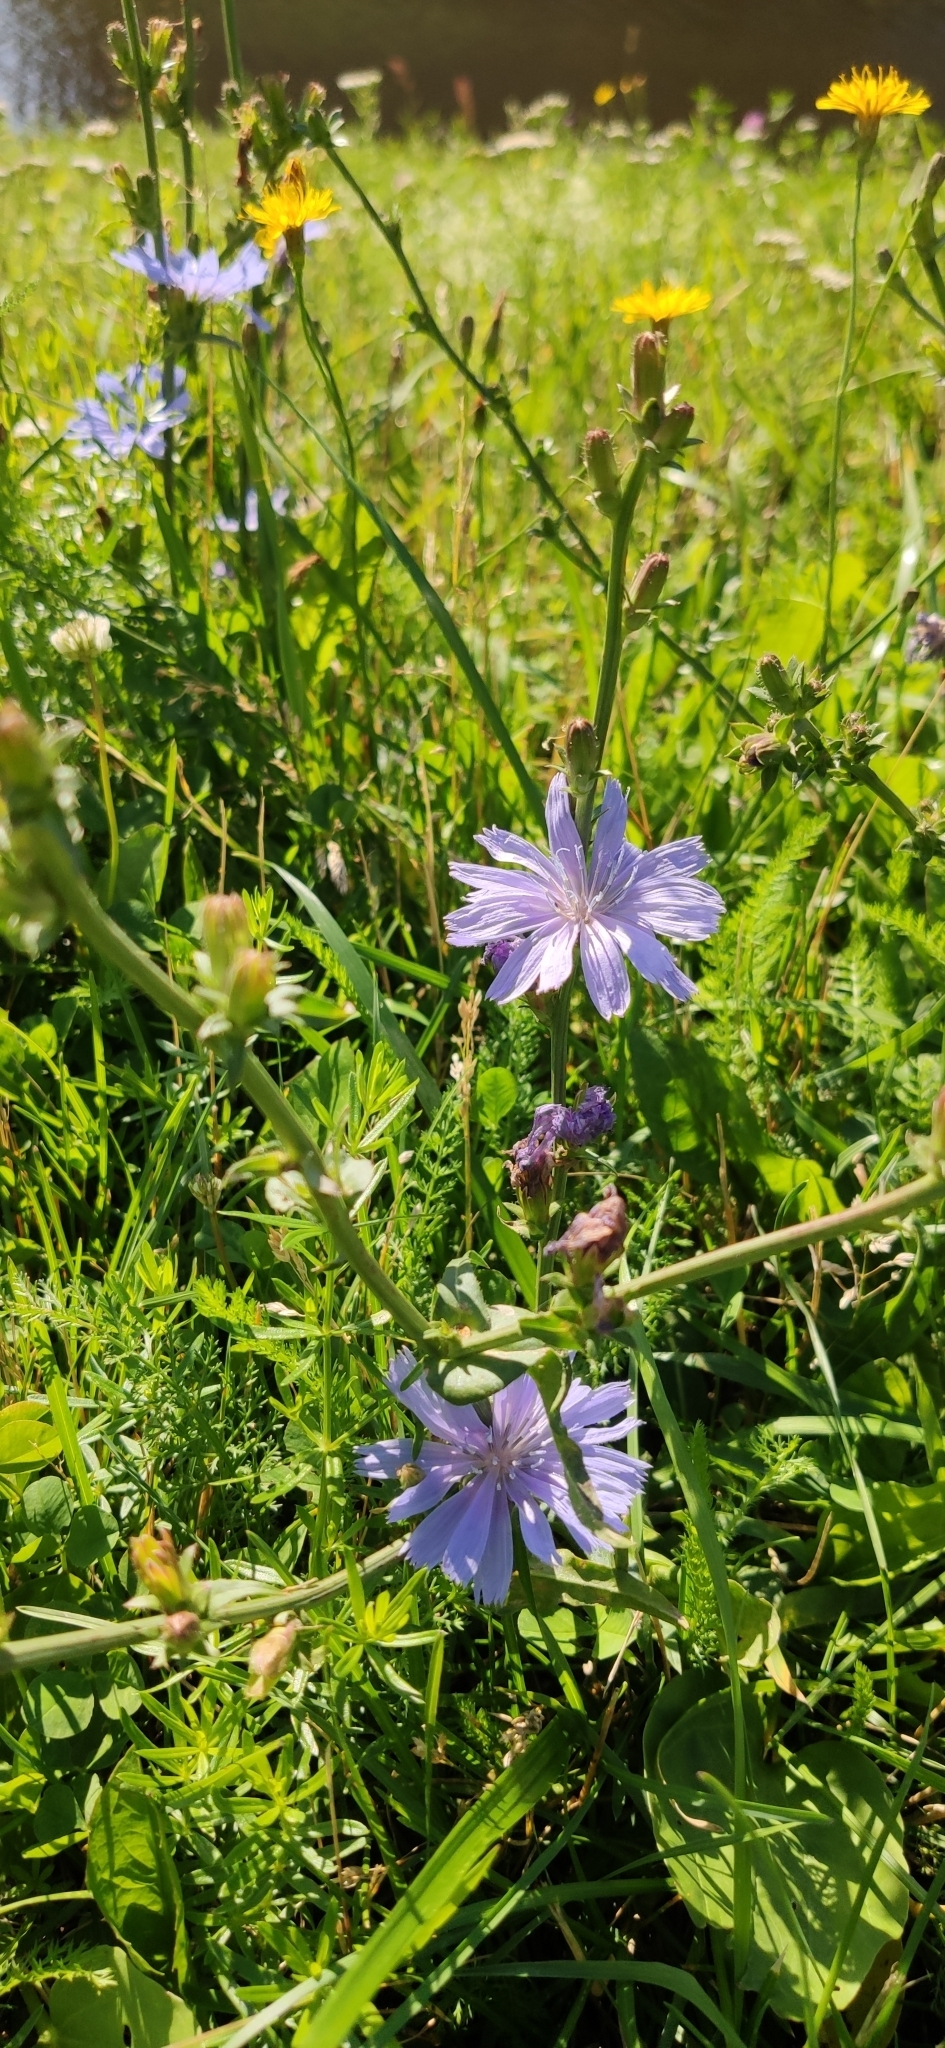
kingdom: Plantae
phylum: Tracheophyta
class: Magnoliopsida
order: Asterales
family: Asteraceae
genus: Cichorium
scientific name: Cichorium intybus
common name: Chicory
